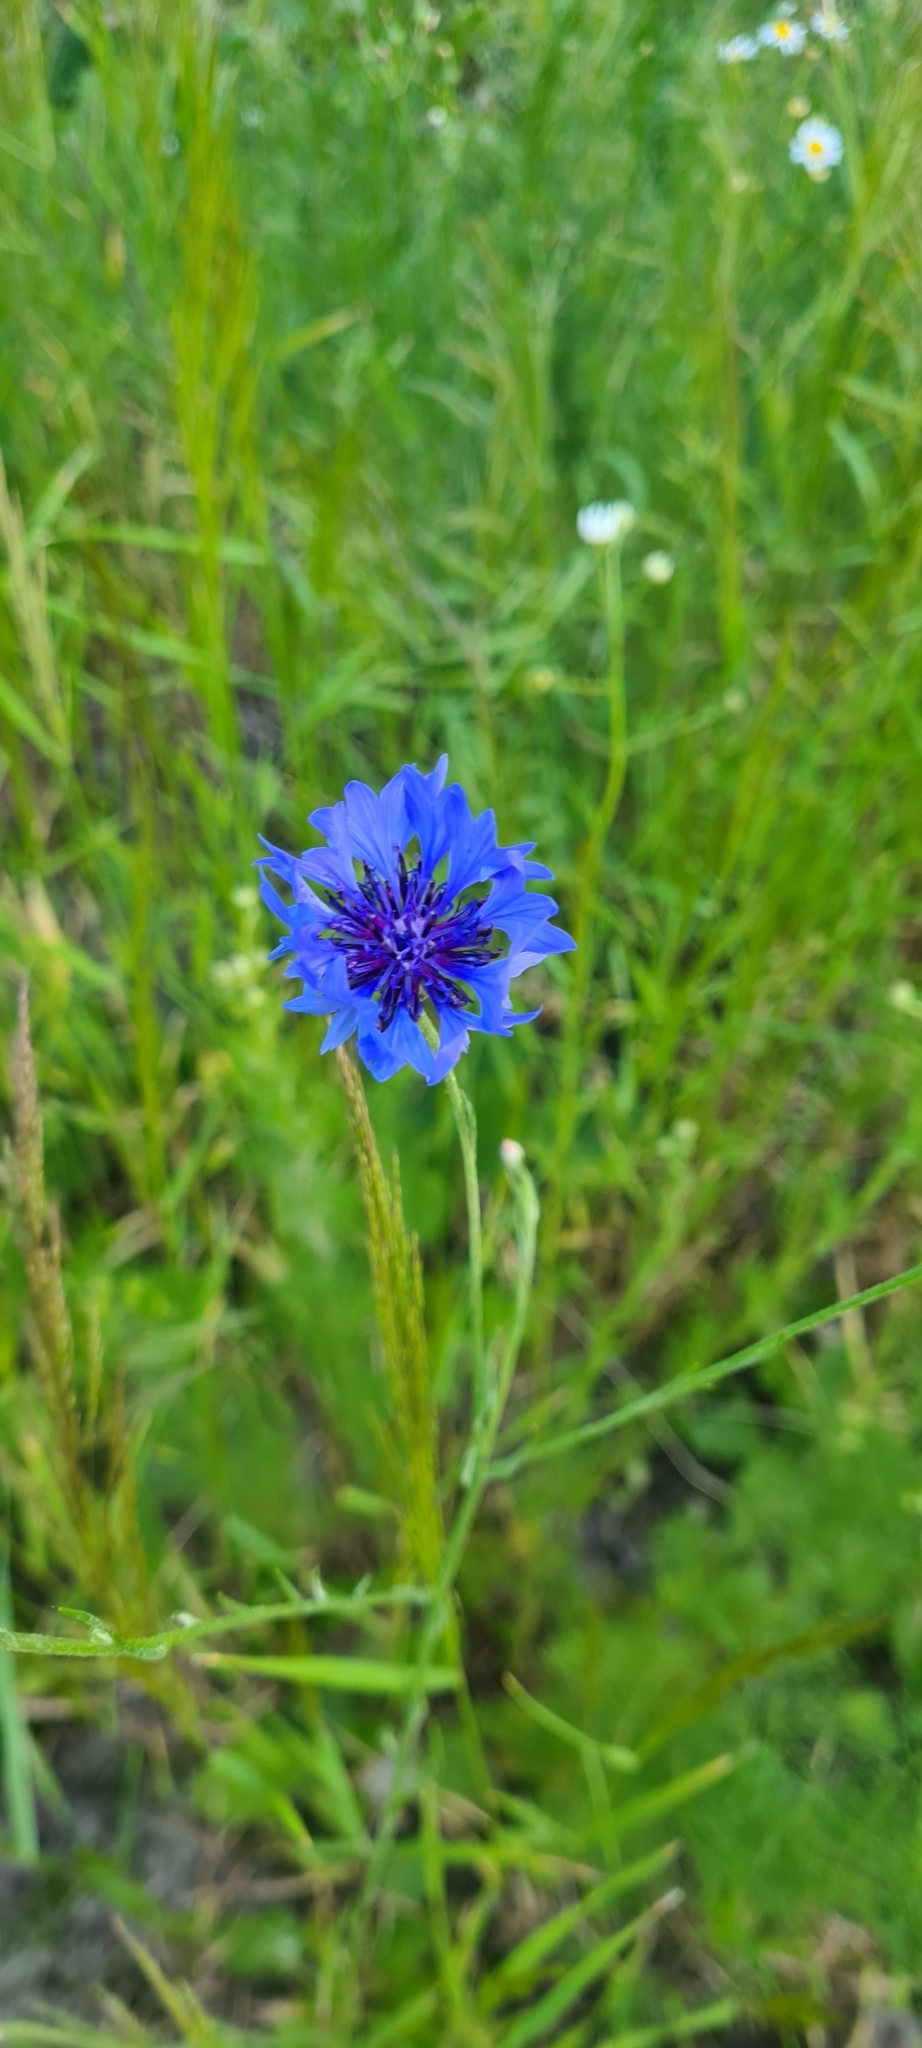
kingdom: Plantae
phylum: Tracheophyta
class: Magnoliopsida
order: Asterales
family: Asteraceae
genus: Centaurea
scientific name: Centaurea cyanus
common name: Cornflower
